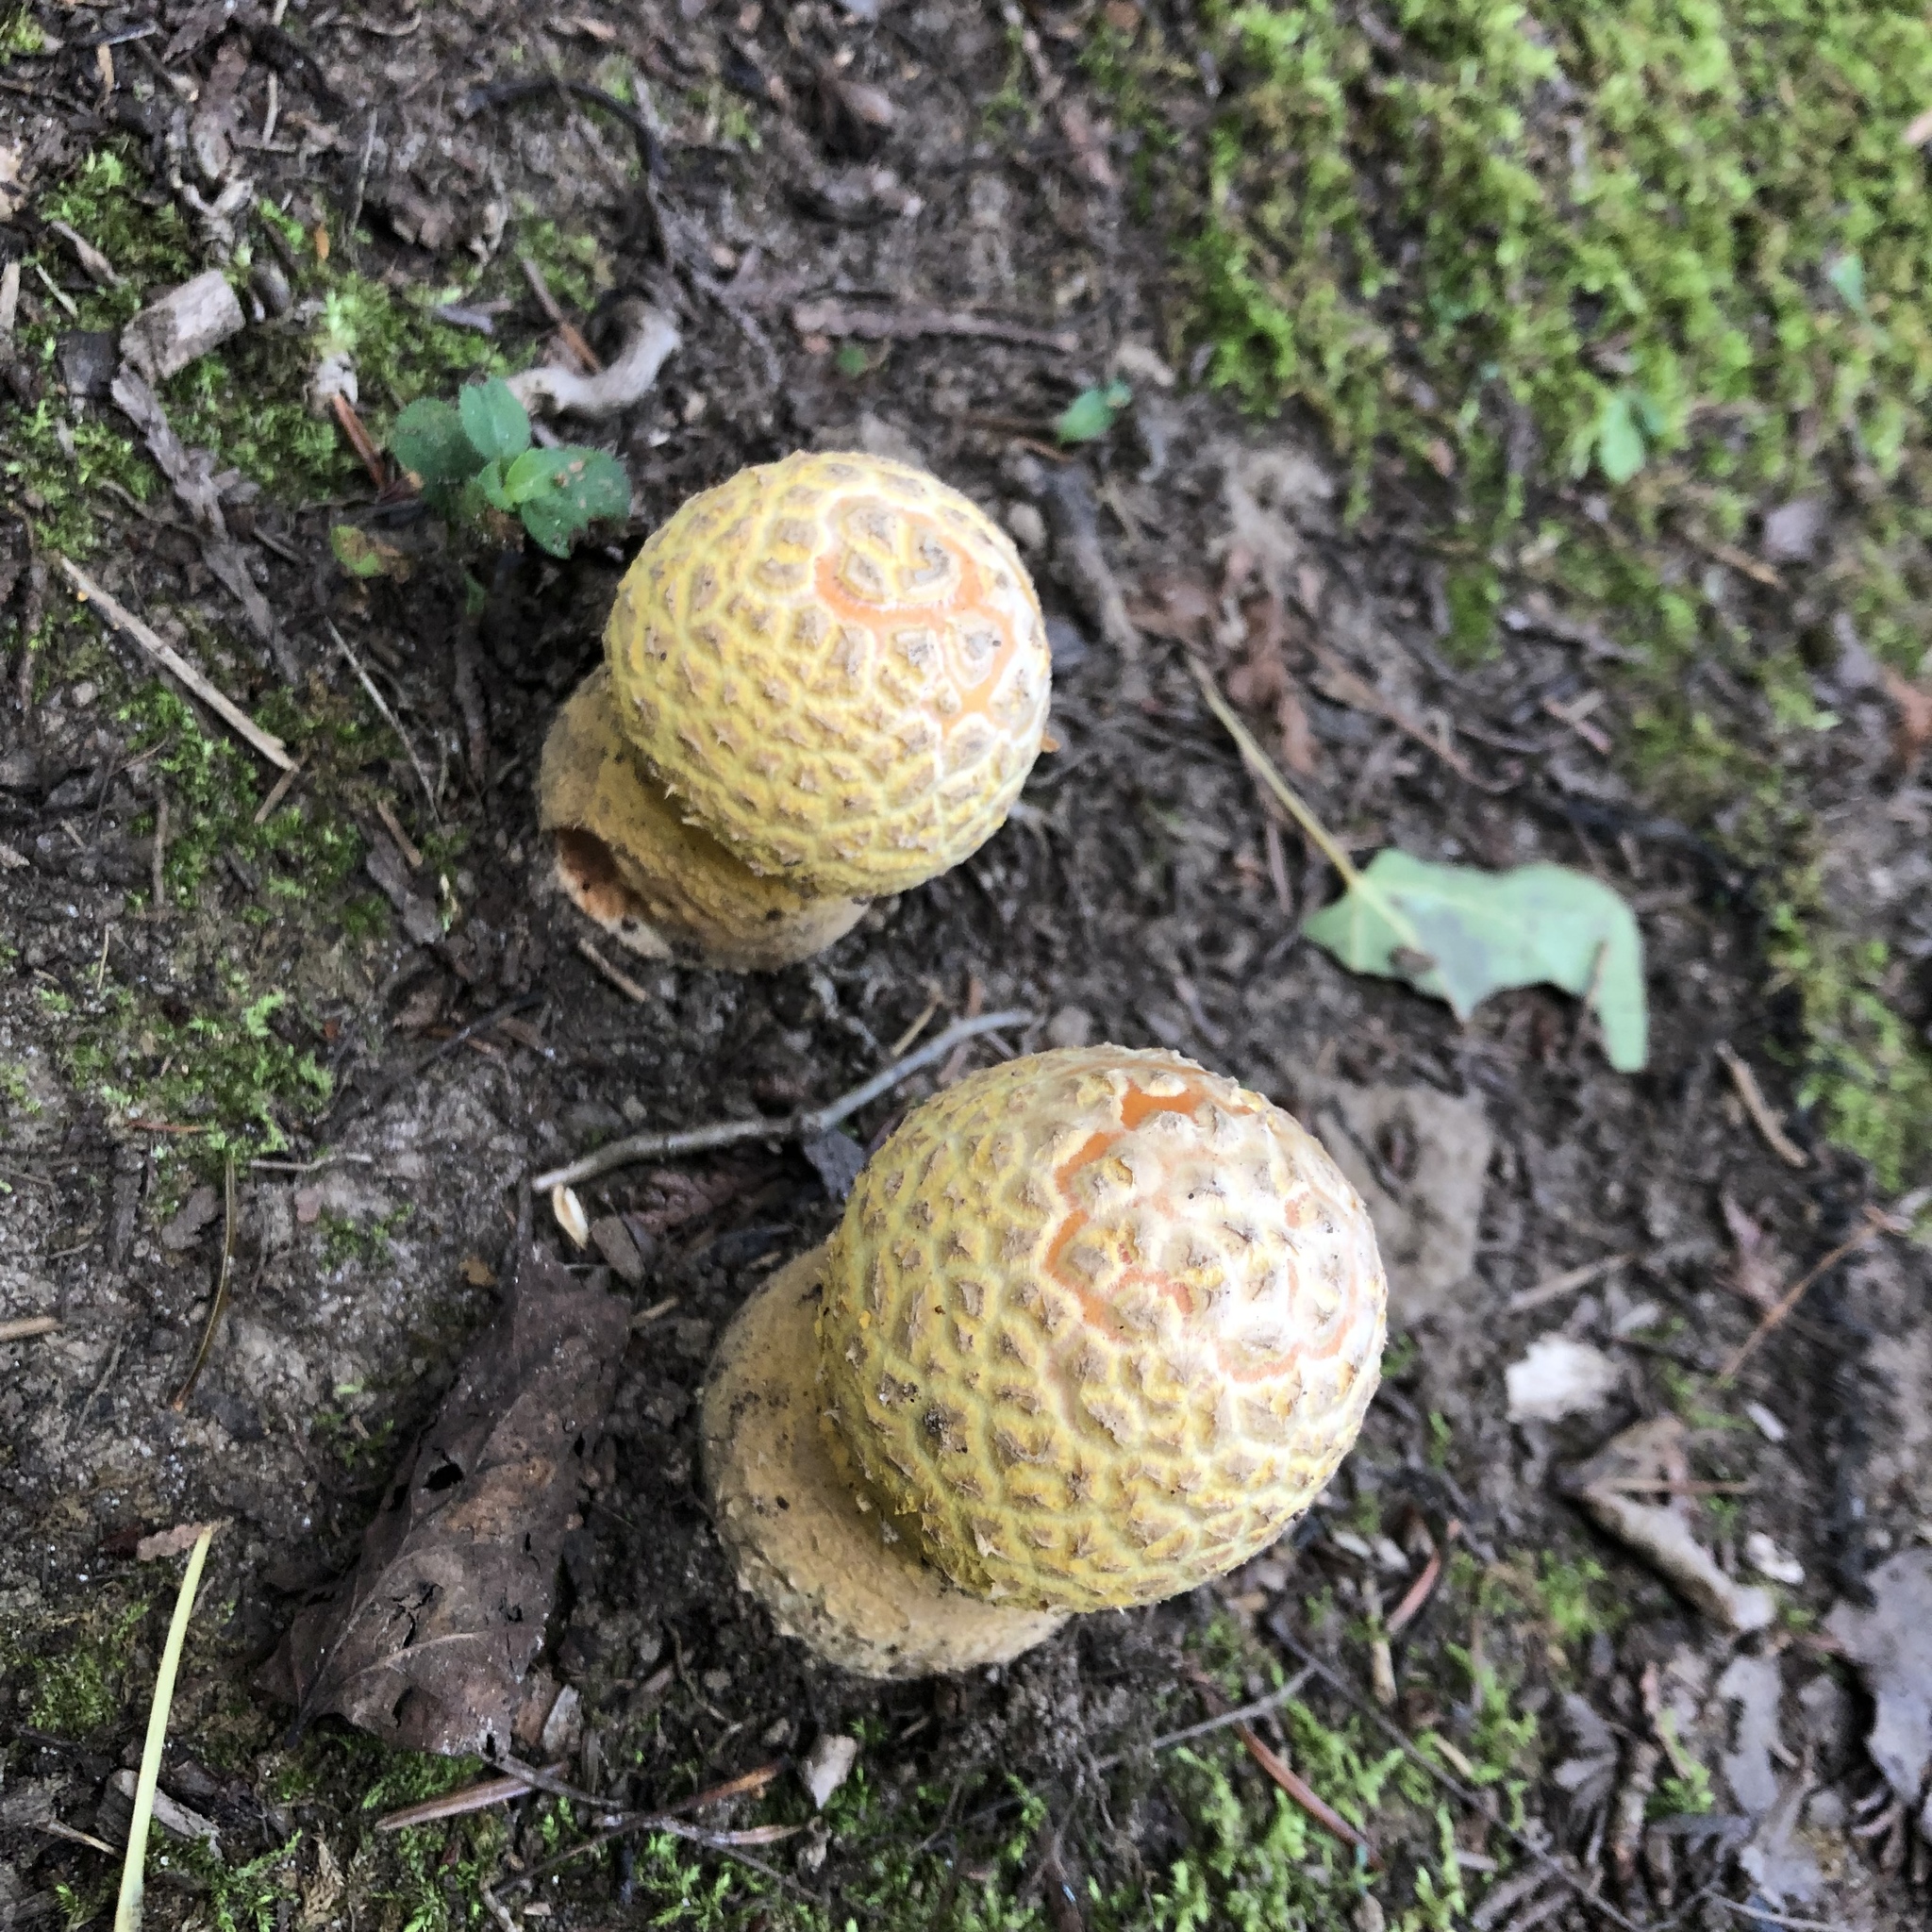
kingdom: Fungi
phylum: Basidiomycota
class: Agaricomycetes
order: Agaricales
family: Amanitaceae
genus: Amanita
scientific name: Amanita muscaria
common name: Fly agaric
